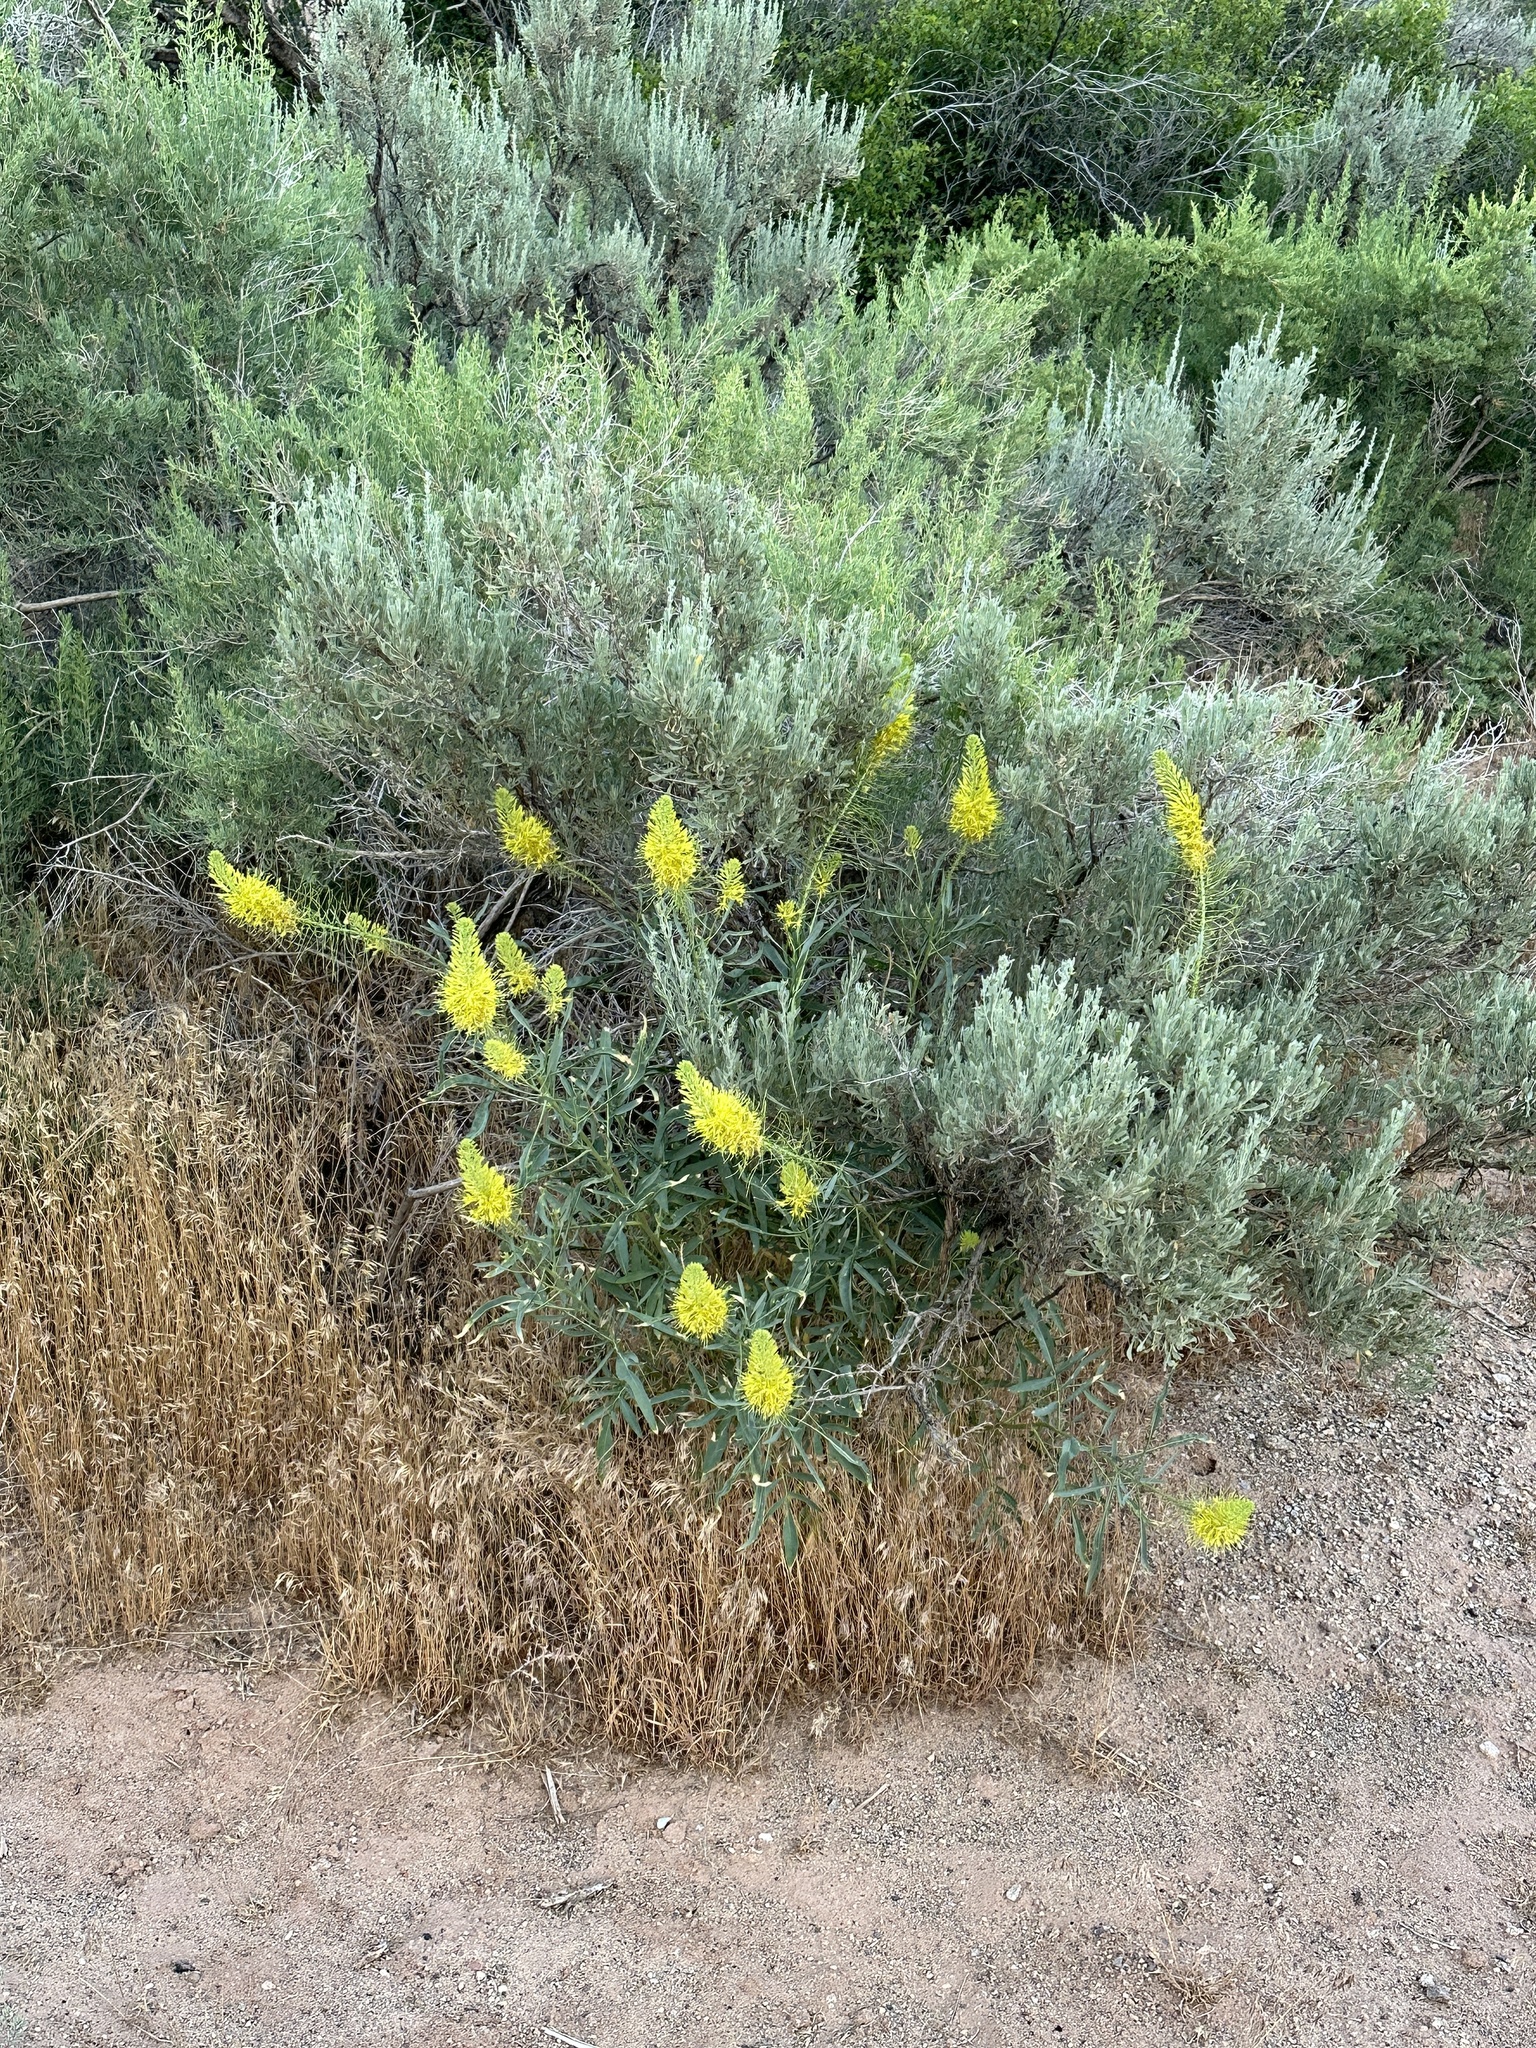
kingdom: Plantae
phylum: Tracheophyta
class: Magnoliopsida
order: Brassicales
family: Brassicaceae
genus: Stanleya
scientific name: Stanleya pinnata
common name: Prince's-plume
